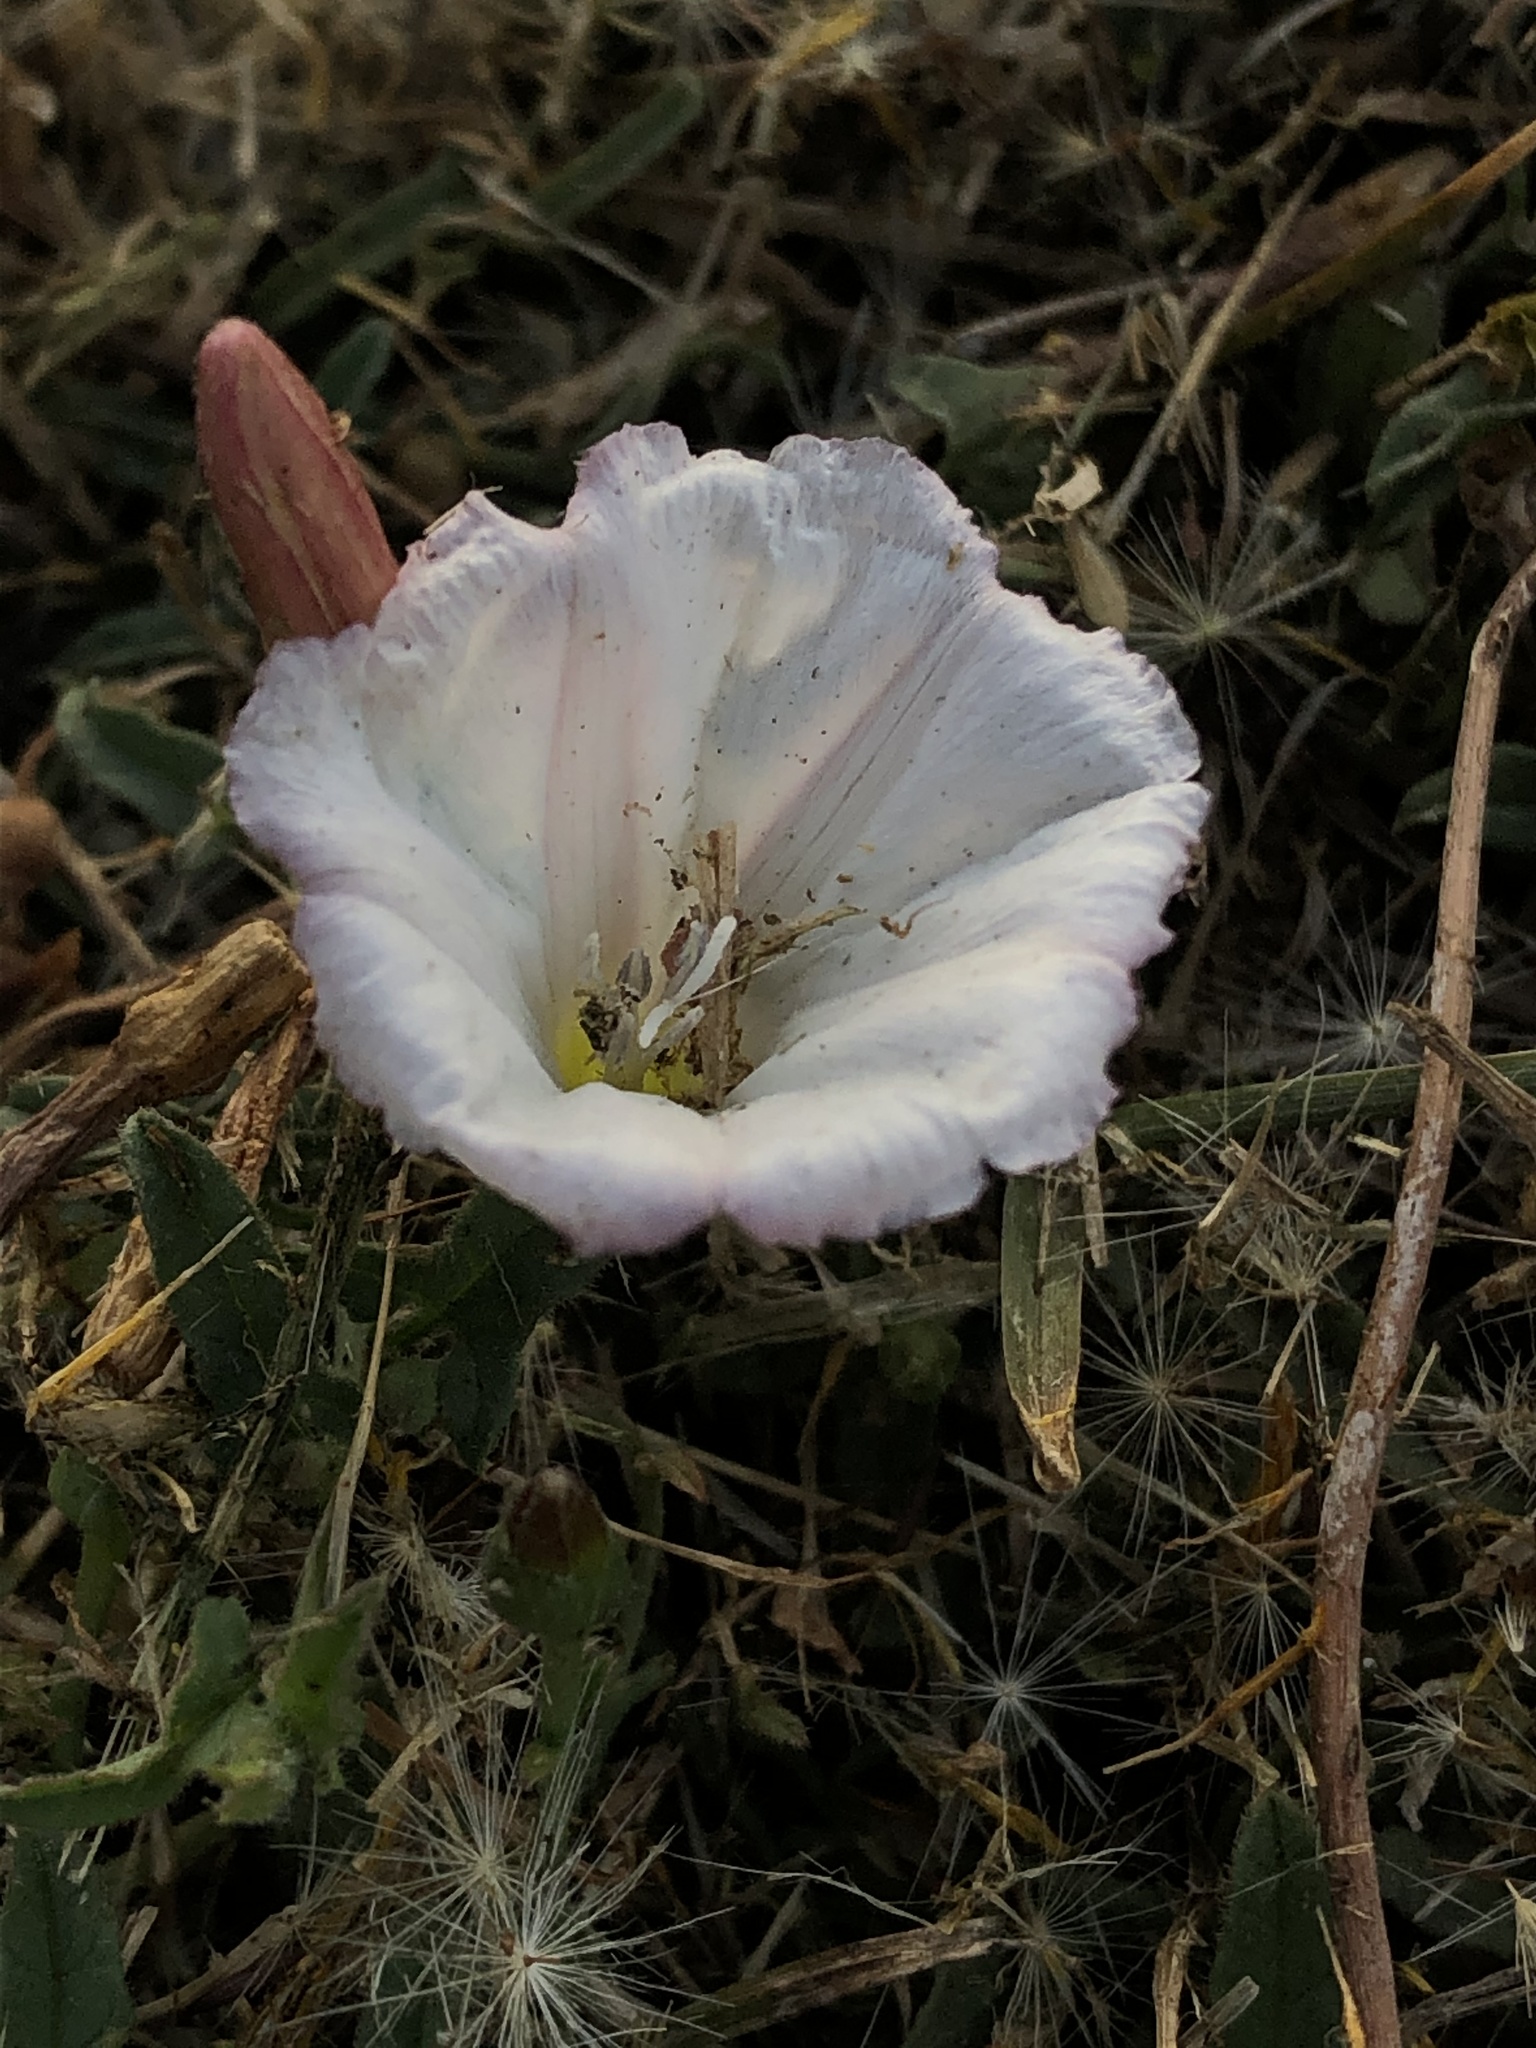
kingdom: Plantae
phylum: Tracheophyta
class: Magnoliopsida
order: Solanales
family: Convolvulaceae
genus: Convolvulus
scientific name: Convolvulus arvensis
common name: Field bindweed
